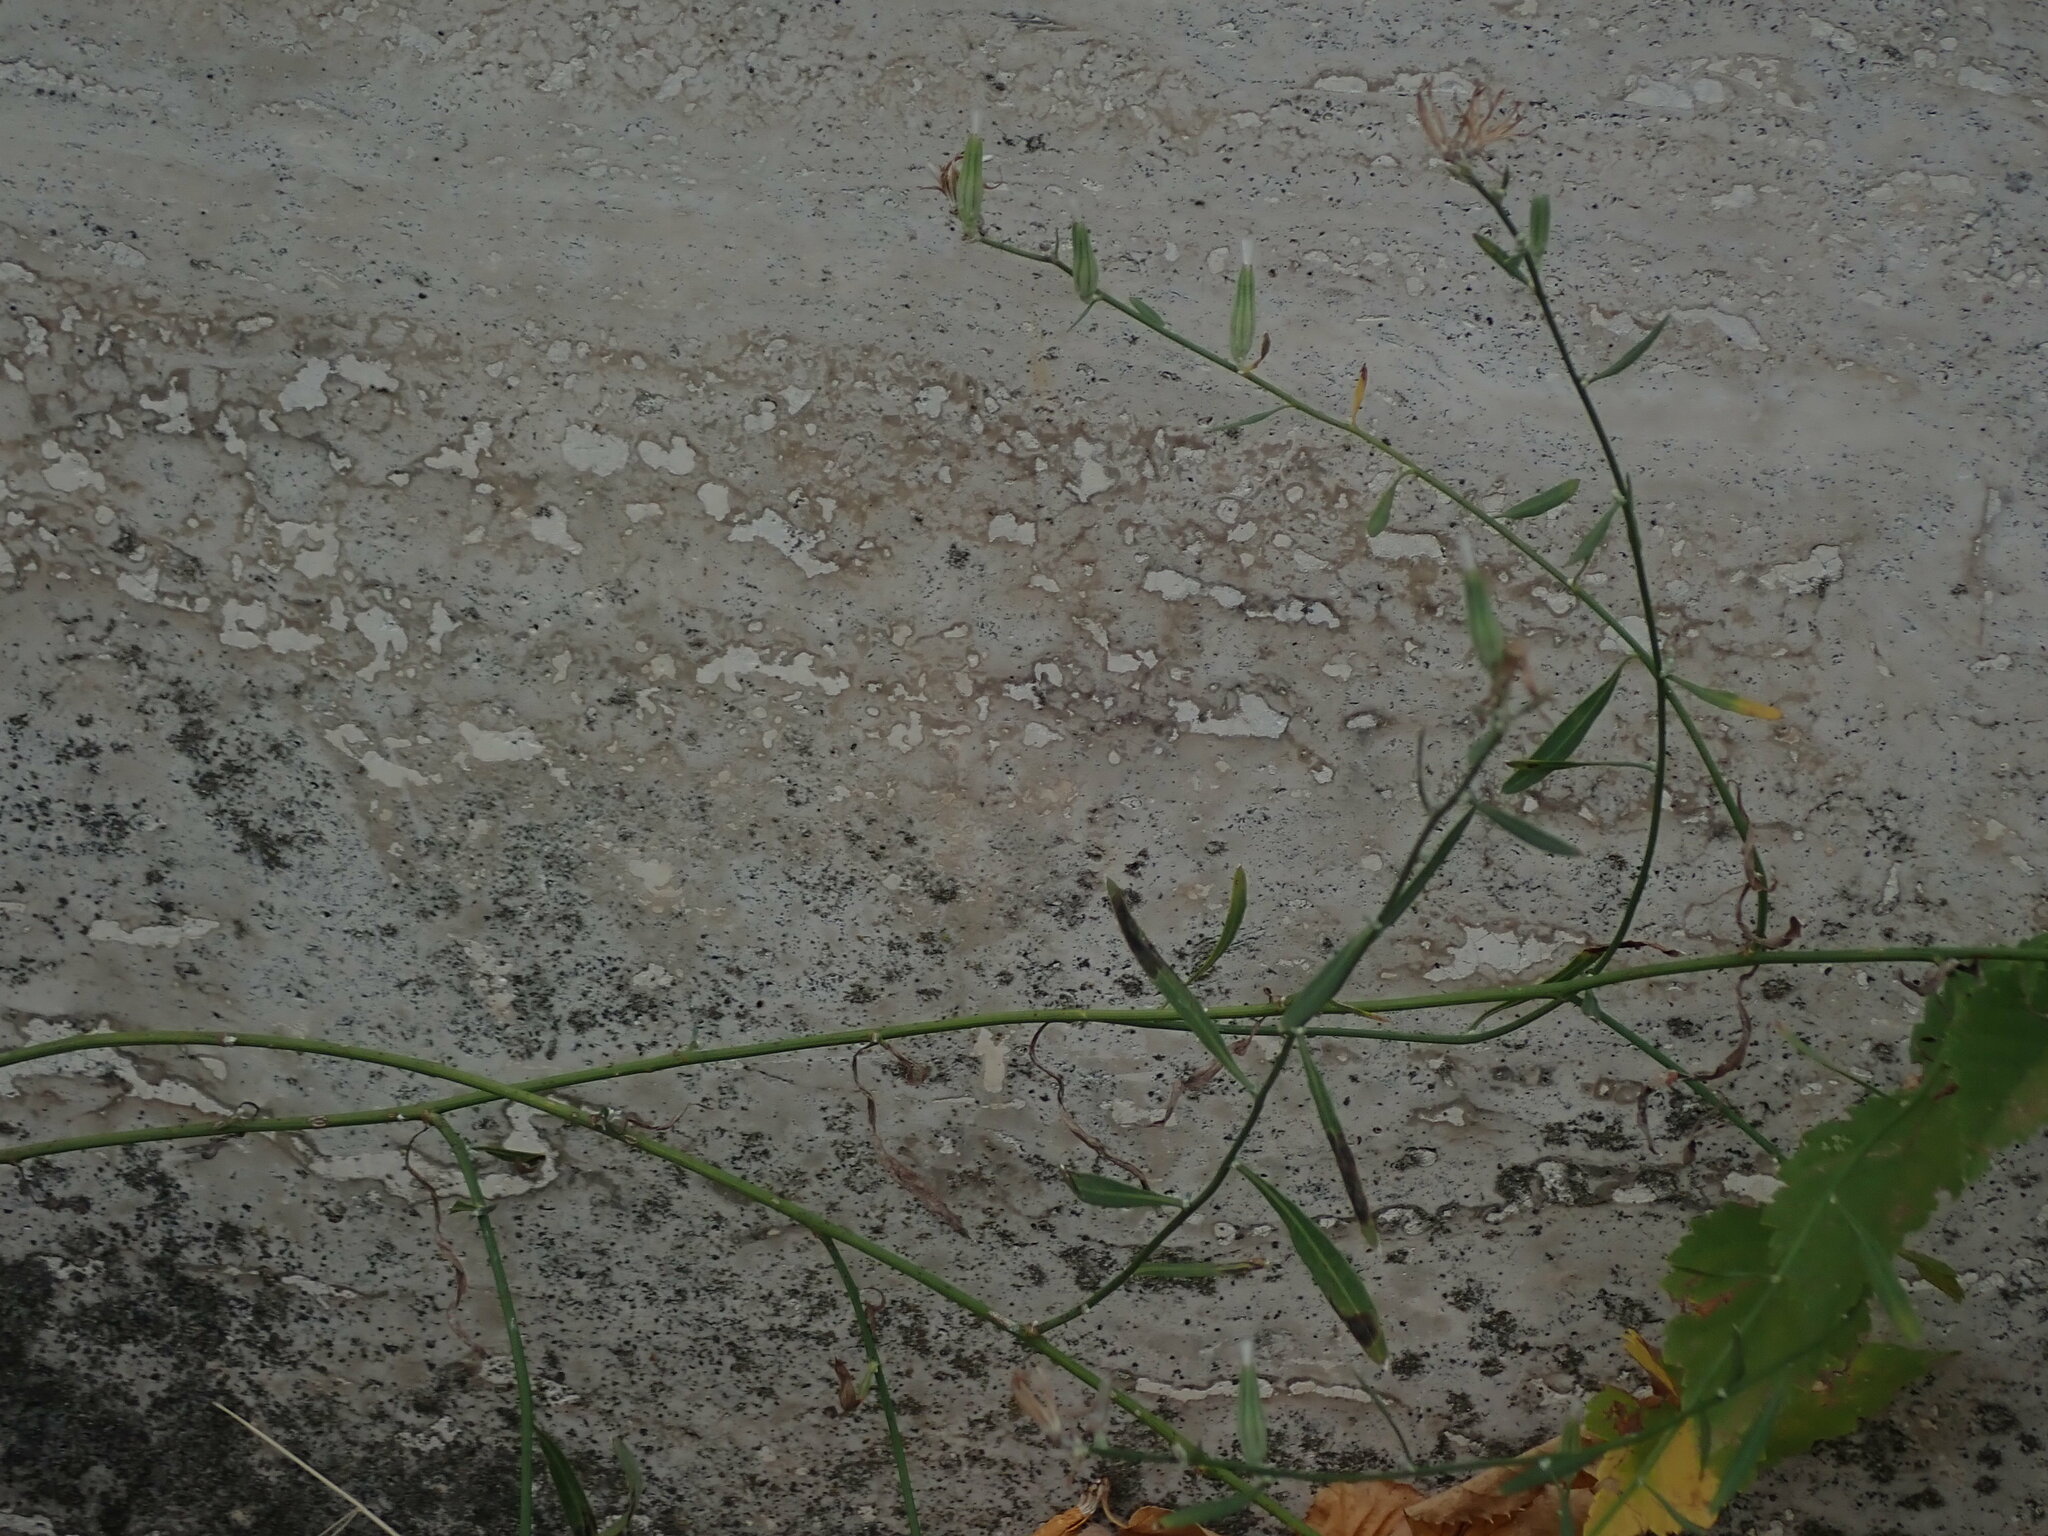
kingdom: Plantae
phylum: Tracheophyta
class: Magnoliopsida
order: Asterales
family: Asteraceae
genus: Chondrilla
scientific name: Chondrilla juncea
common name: Skeleton weed
